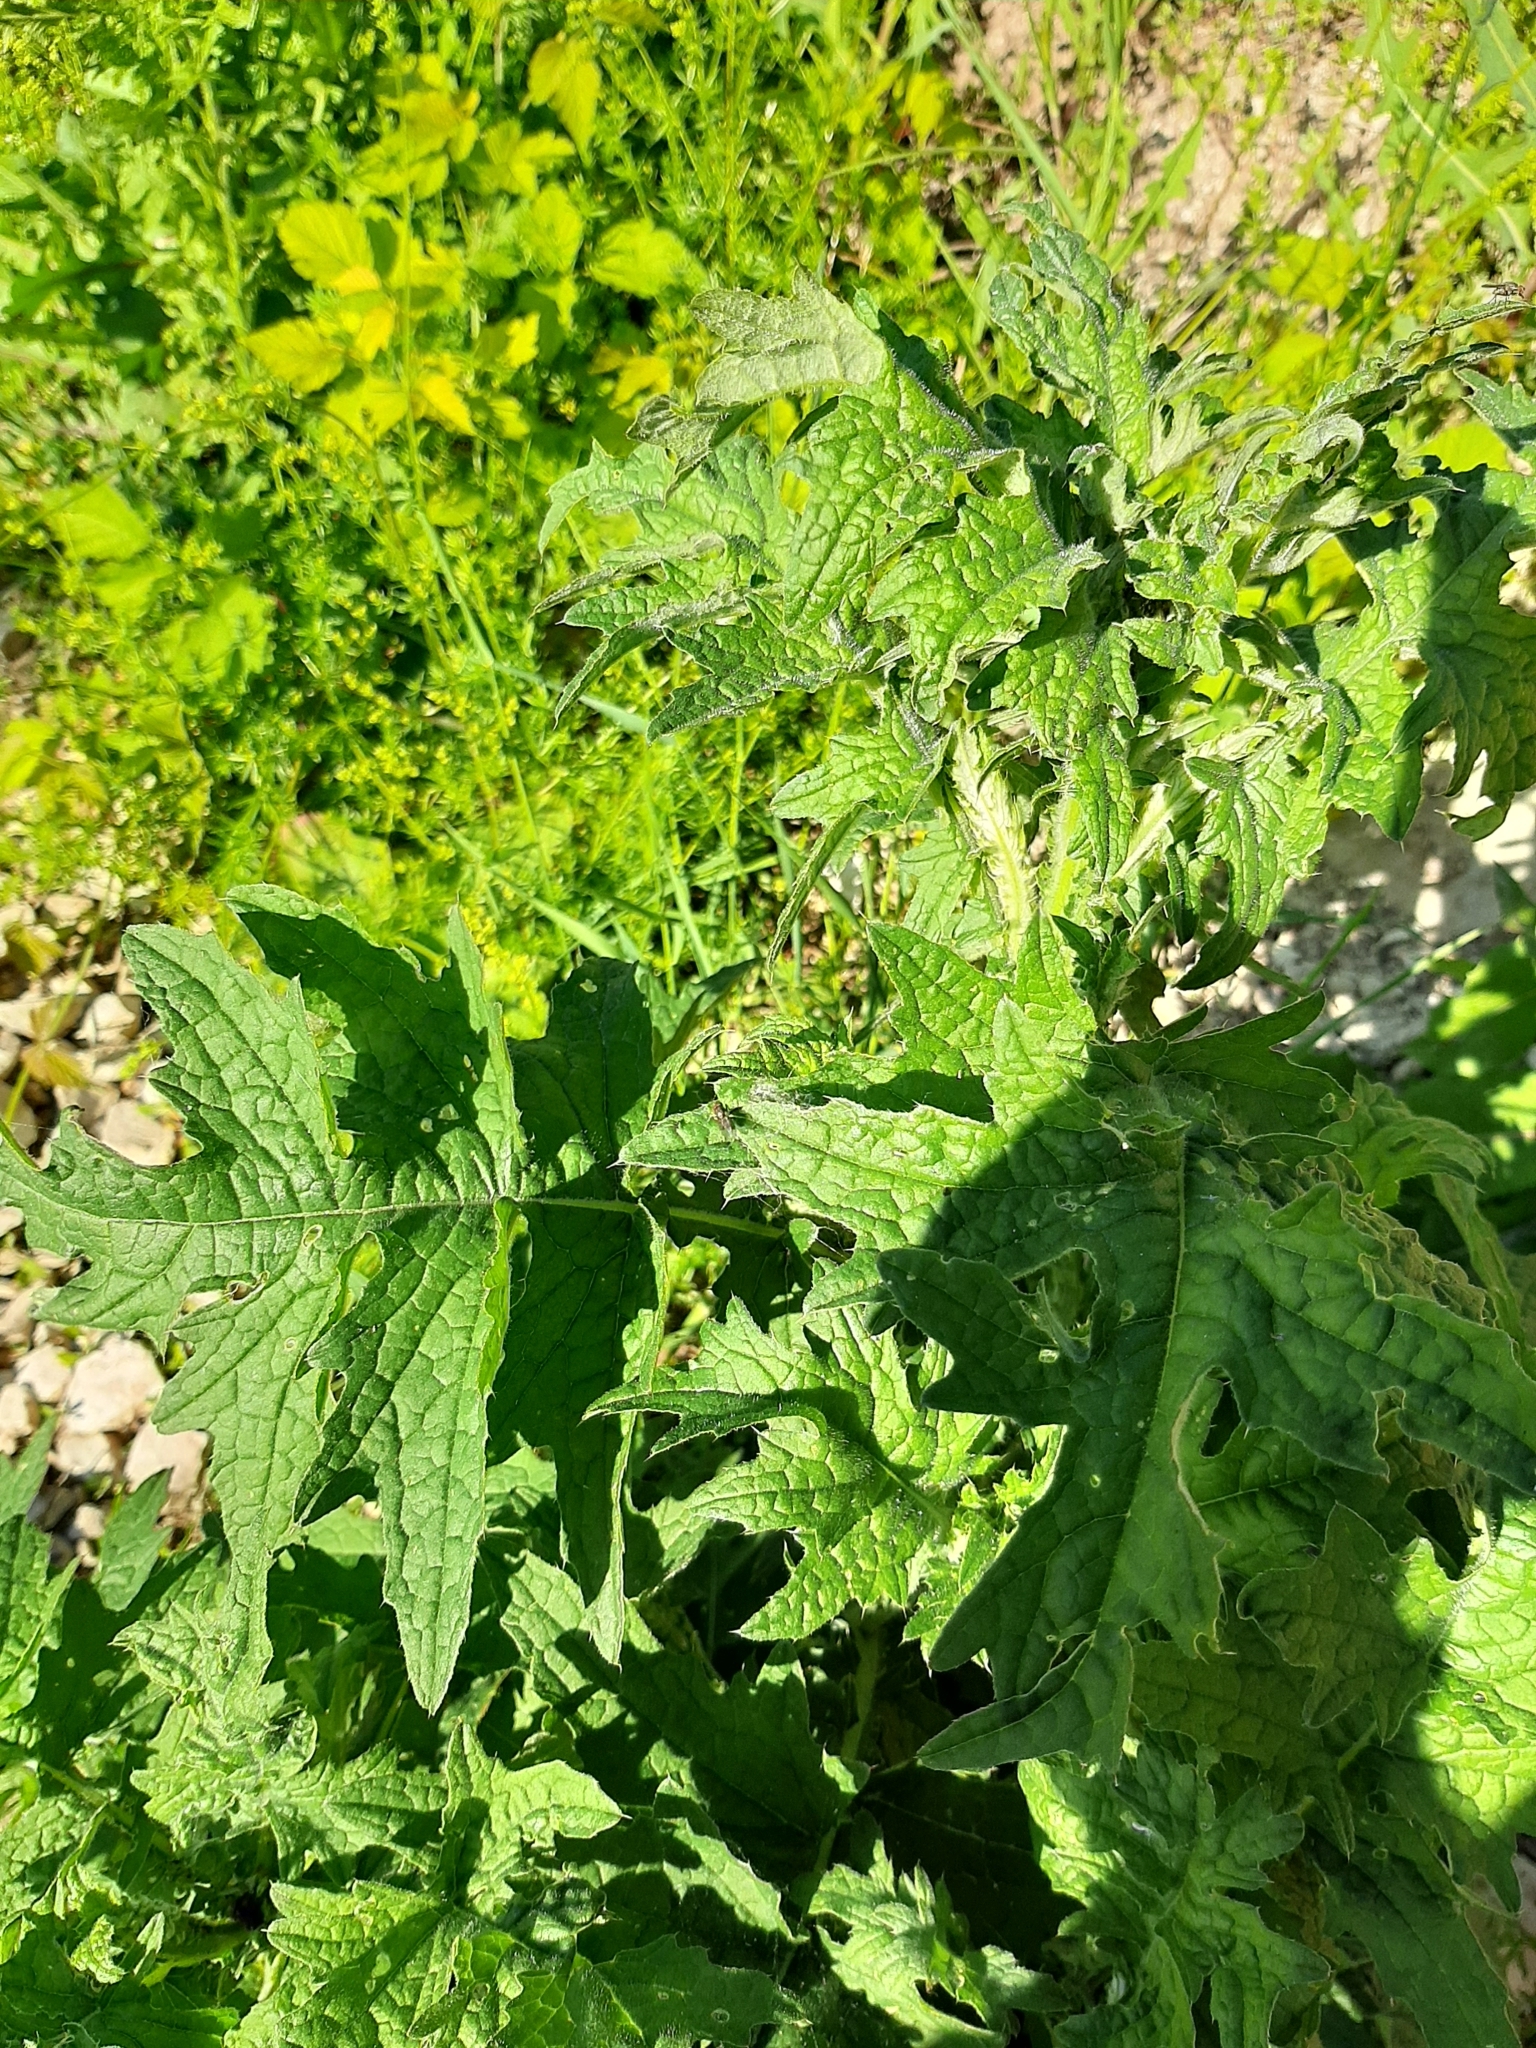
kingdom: Plantae
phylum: Tracheophyta
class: Magnoliopsida
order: Asterales
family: Asteraceae
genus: Carduus
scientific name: Carduus crispus
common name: Welted thistle
